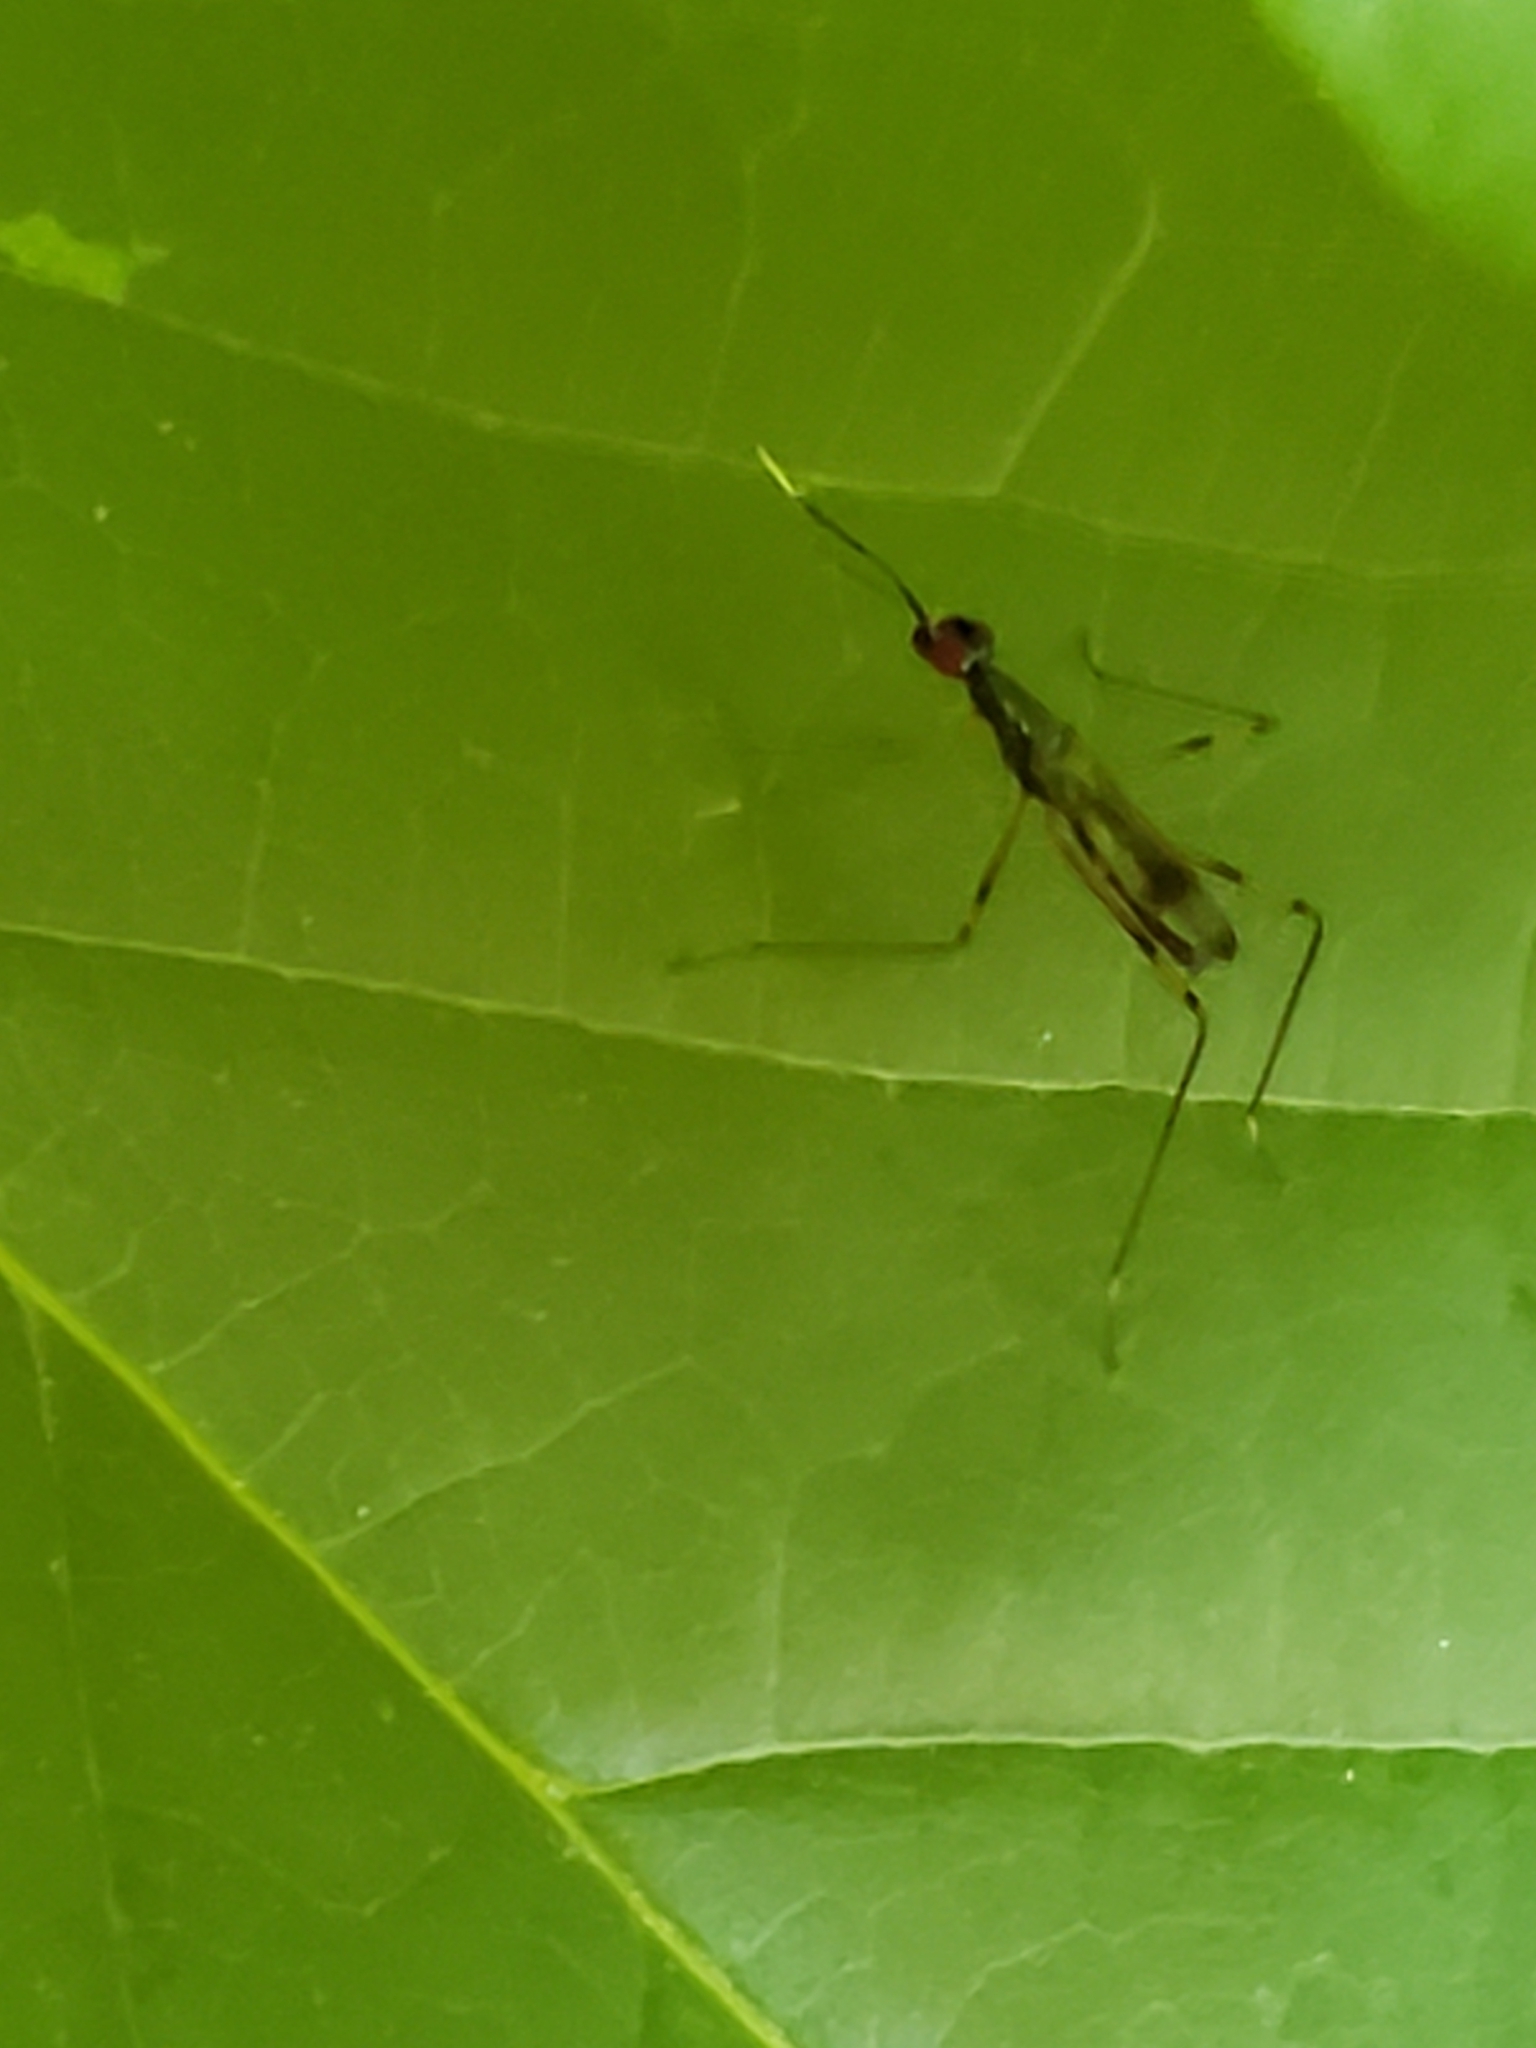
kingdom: Animalia
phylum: Arthropoda
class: Insecta
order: Diptera
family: Micropezidae
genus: Rainieria
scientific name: Rainieria antennaepes
